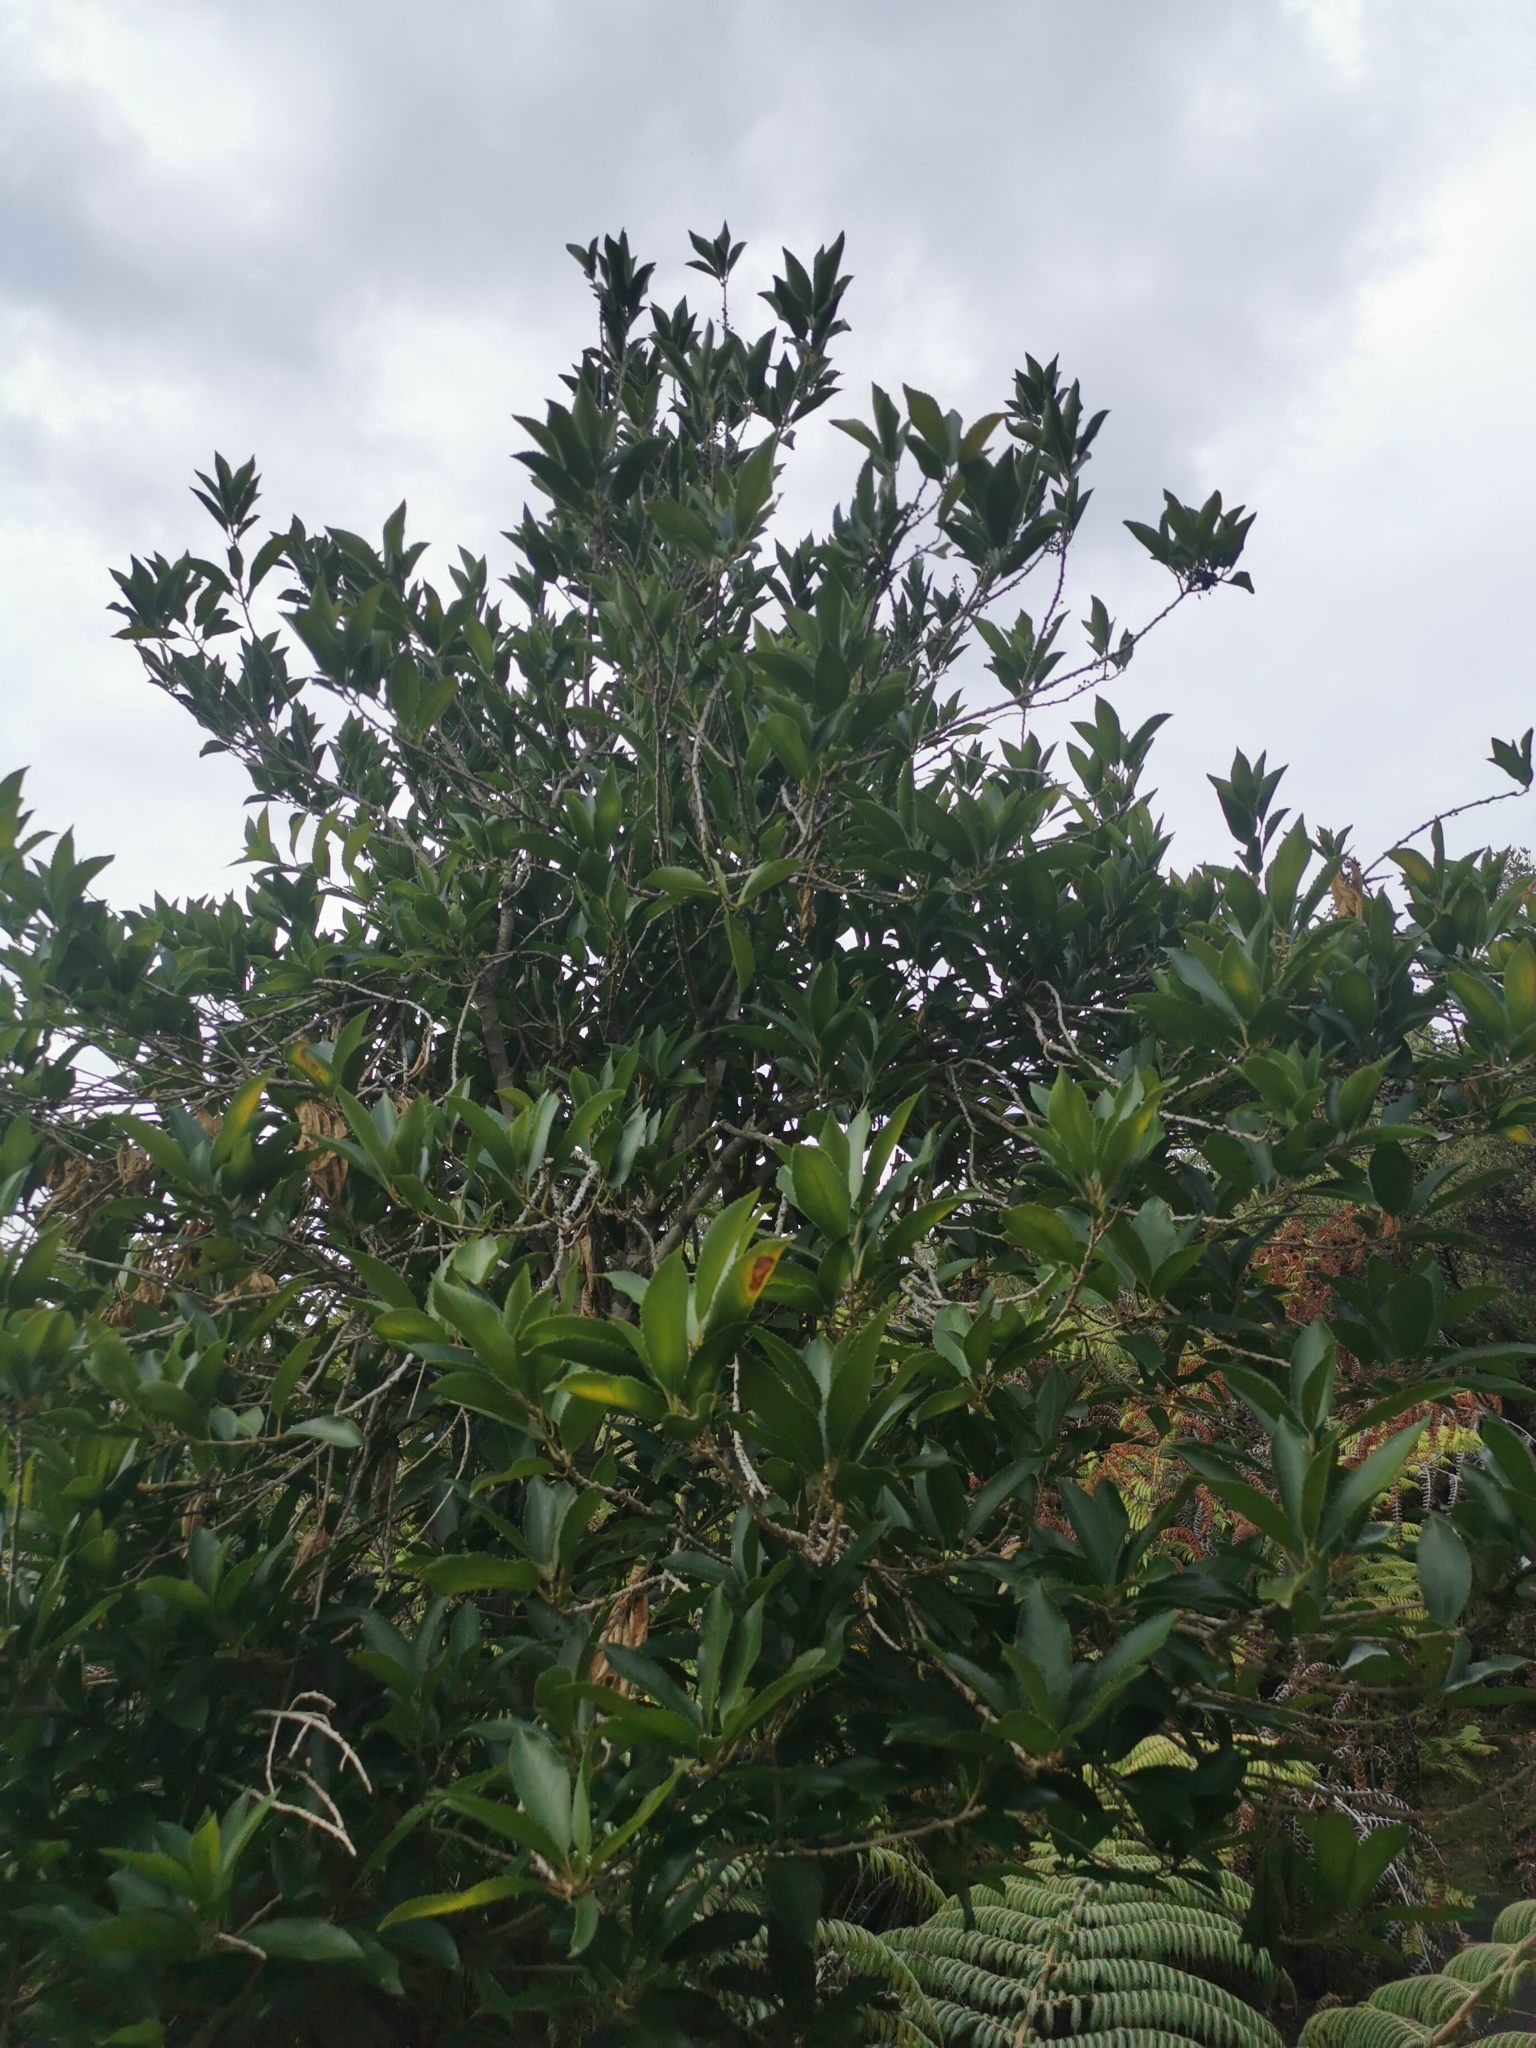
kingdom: Plantae
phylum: Tracheophyta
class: Magnoliopsida
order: Malpighiales
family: Violaceae
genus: Melicytus
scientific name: Melicytus ramiflorus
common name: Mahoe
